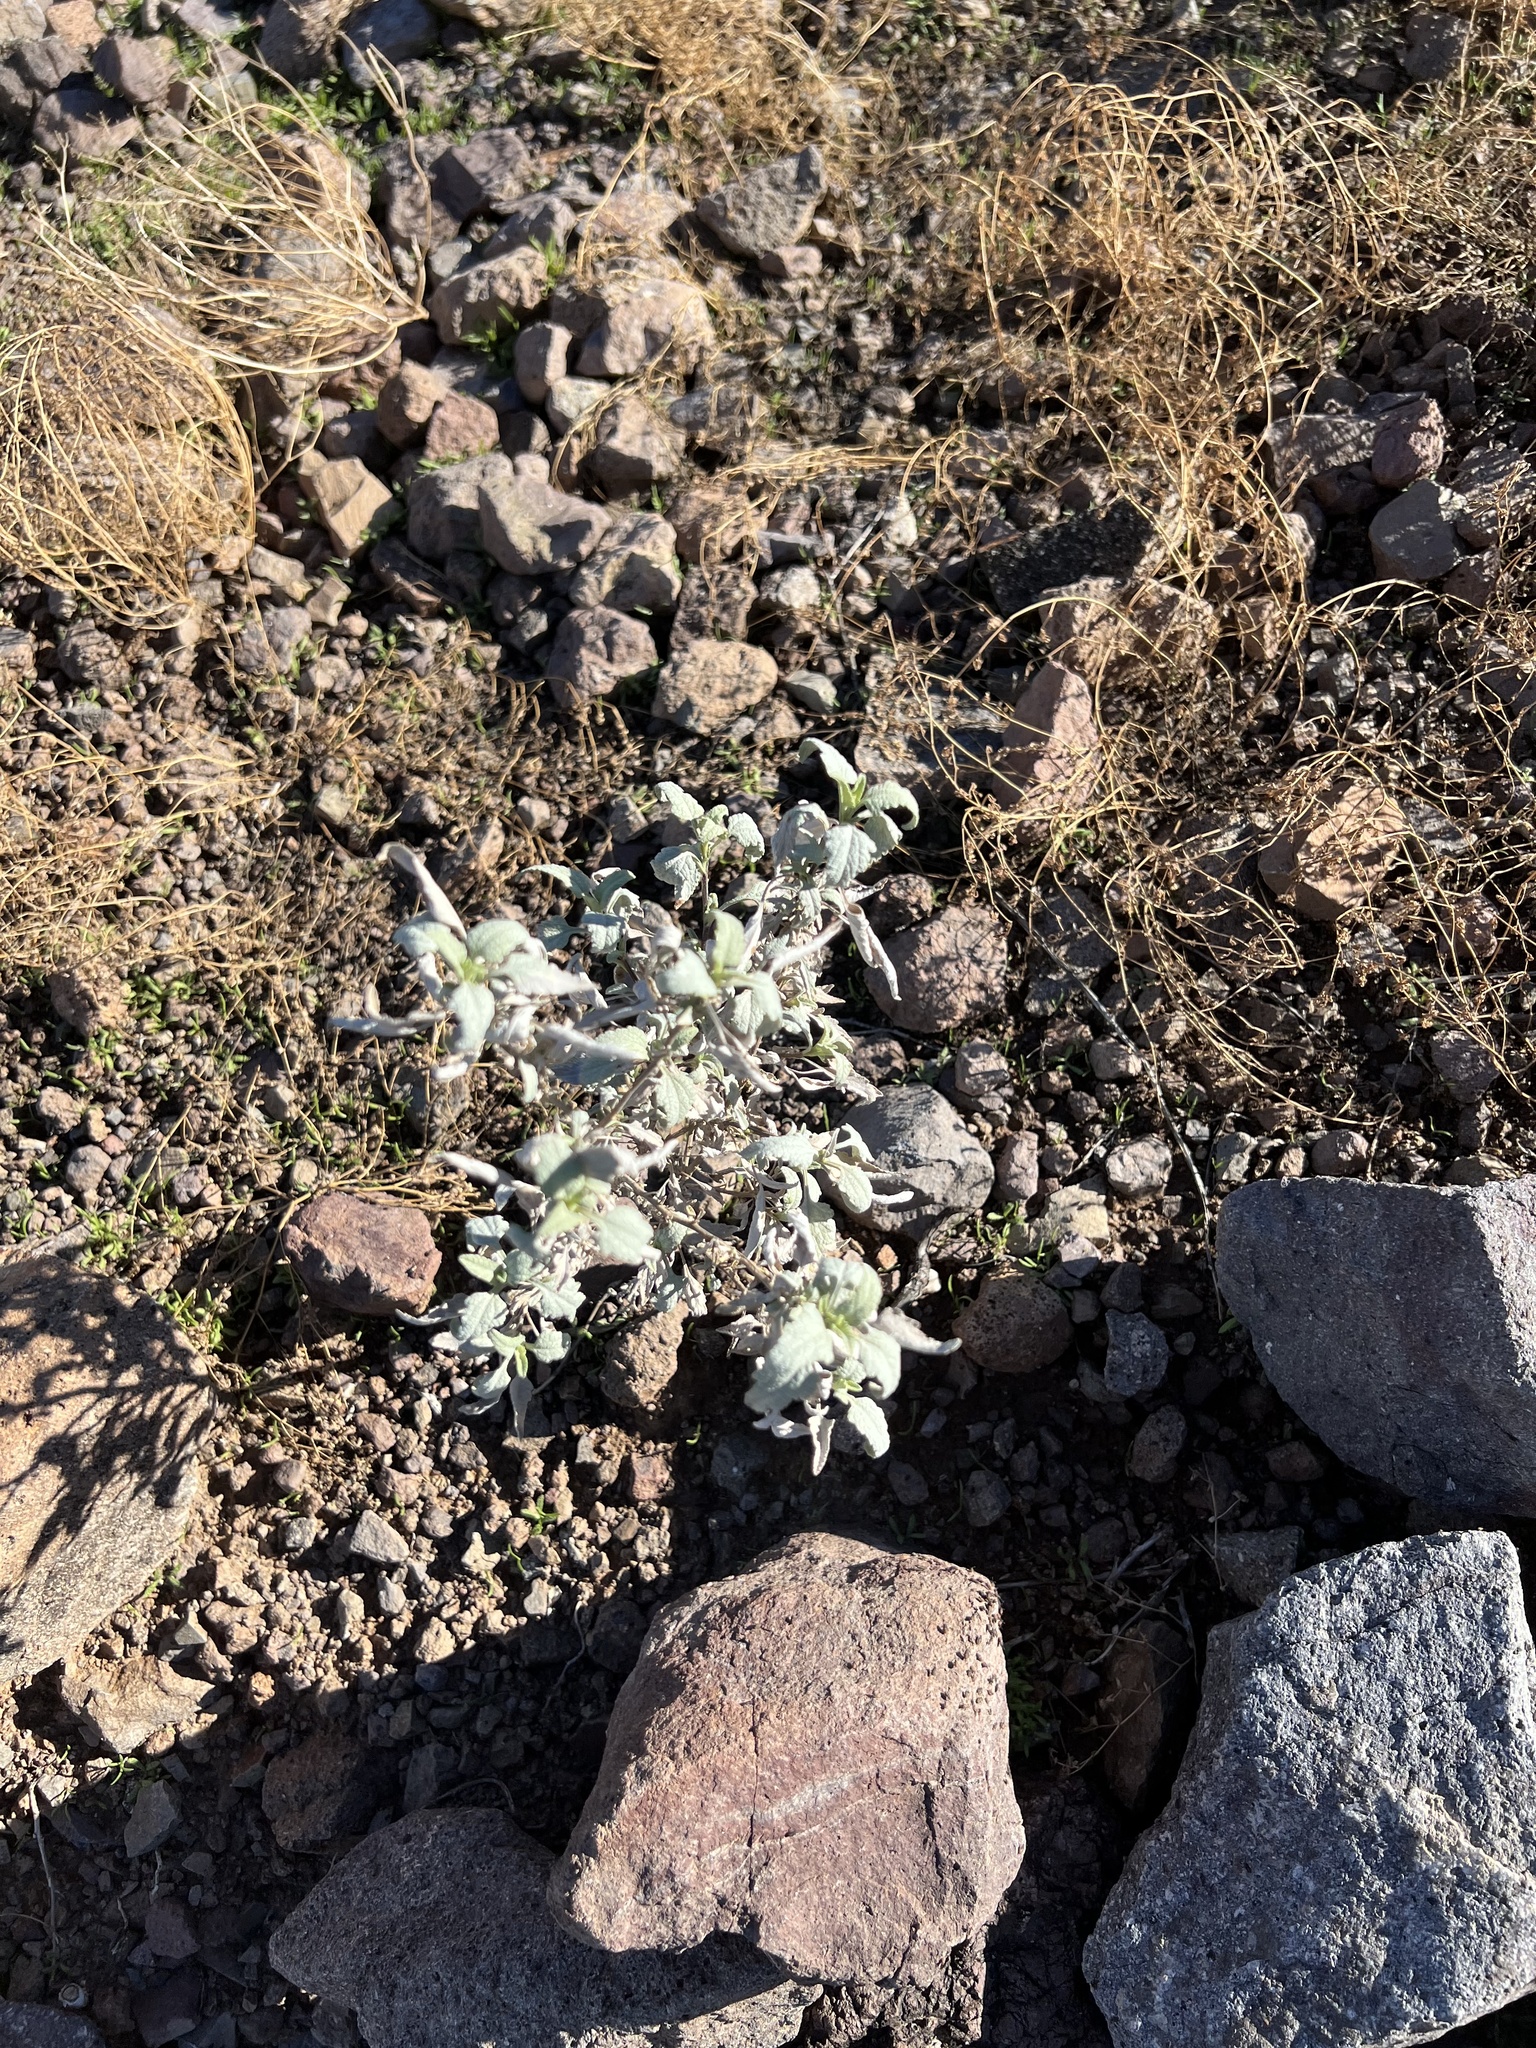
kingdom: Plantae
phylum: Tracheophyta
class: Magnoliopsida
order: Asterales
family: Asteraceae
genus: Ambrosia
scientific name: Ambrosia deltoidea
